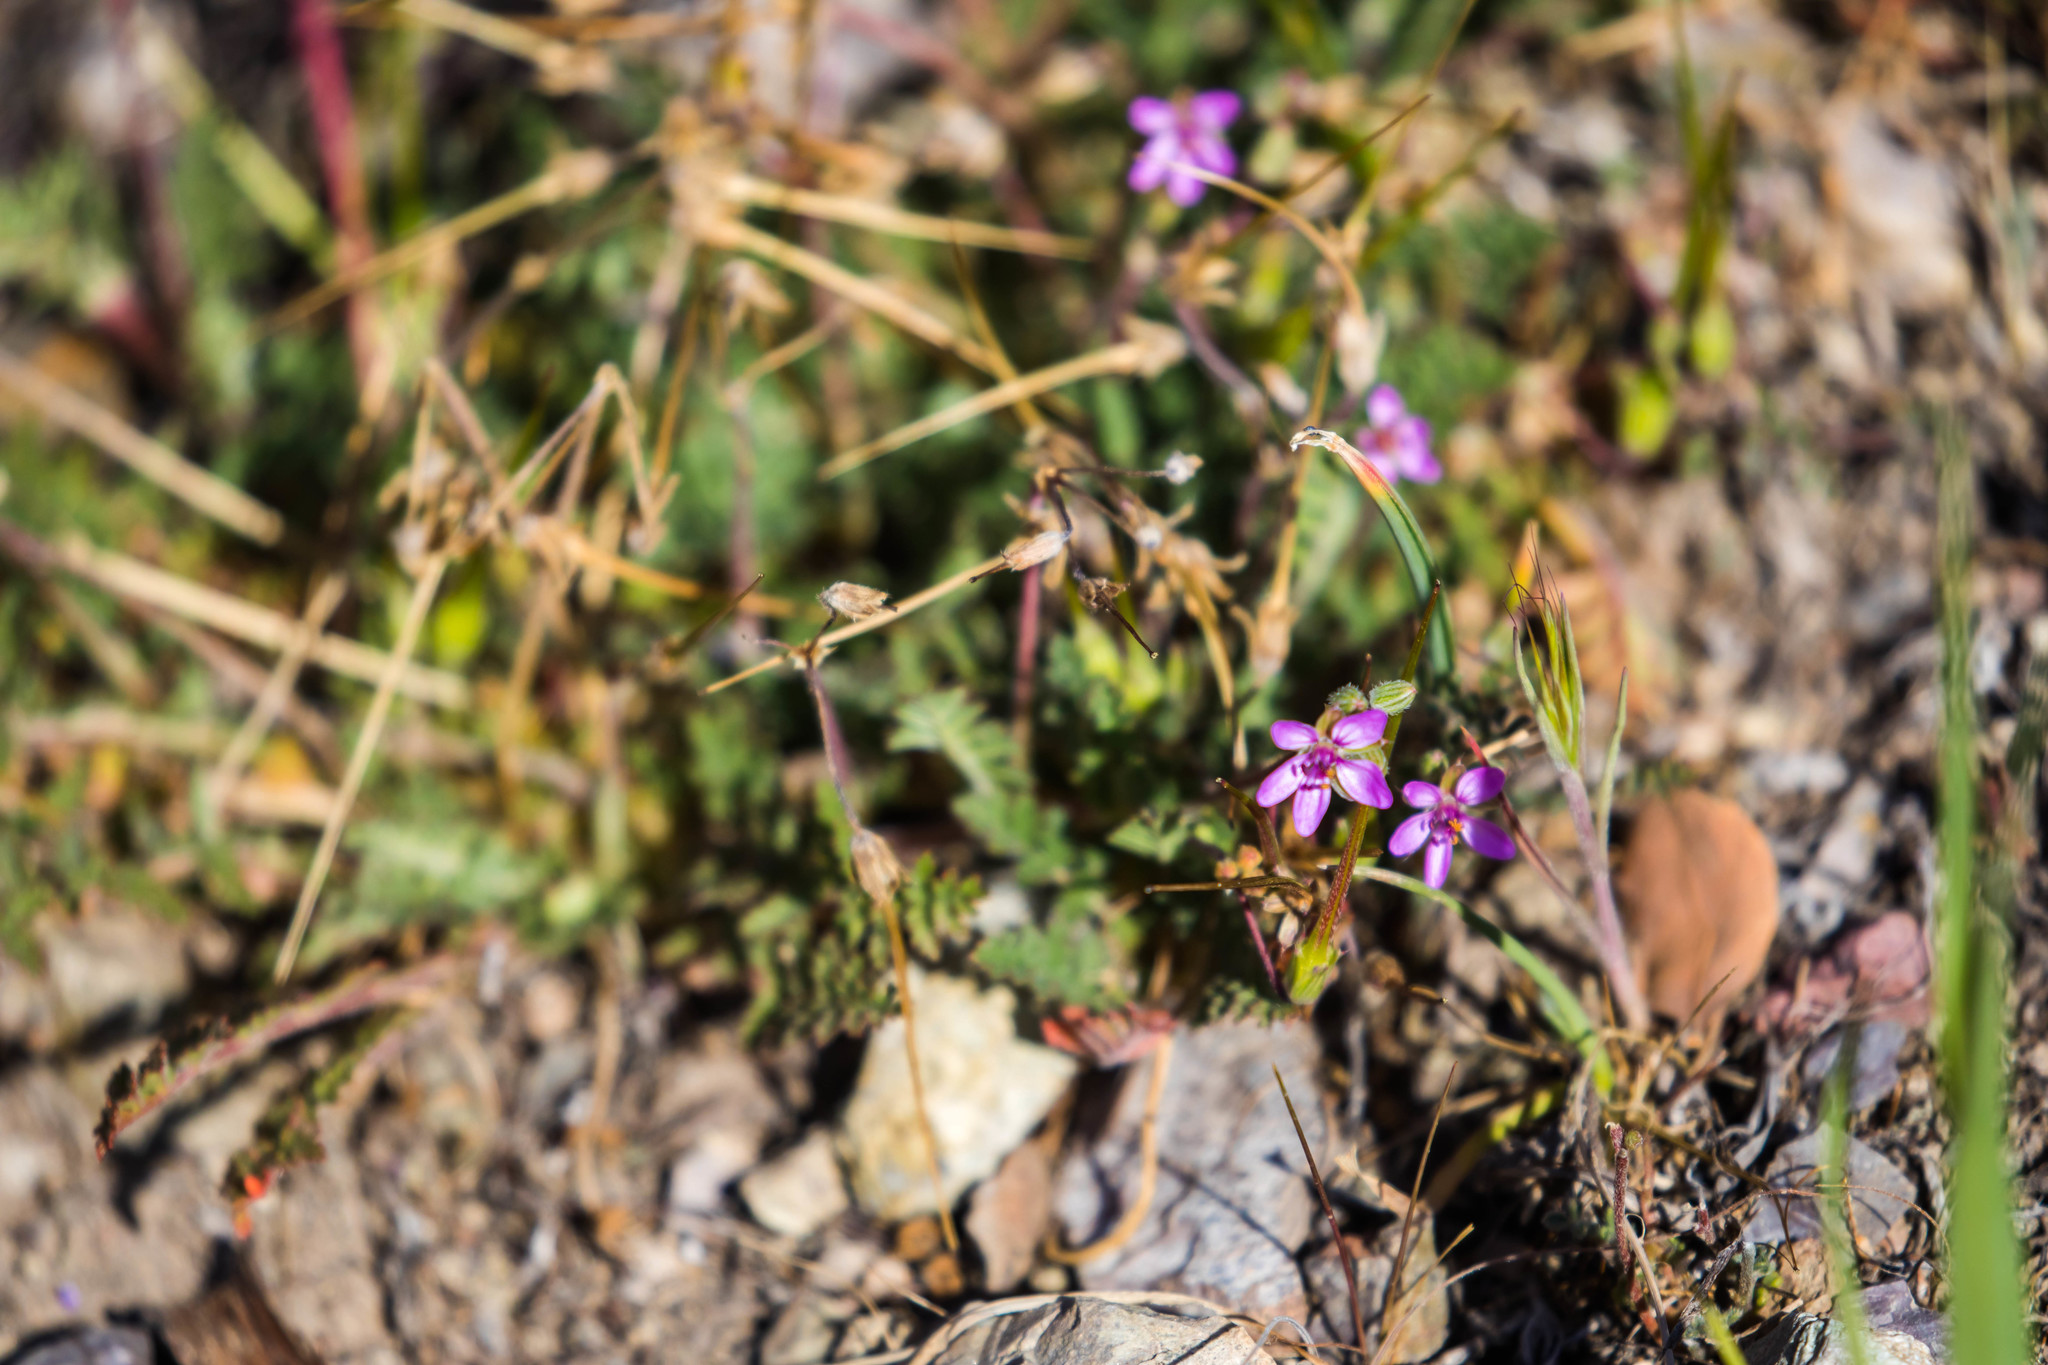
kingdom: Plantae
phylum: Tracheophyta
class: Magnoliopsida
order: Geraniales
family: Geraniaceae
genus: Erodium
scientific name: Erodium cicutarium
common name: Common stork's-bill
